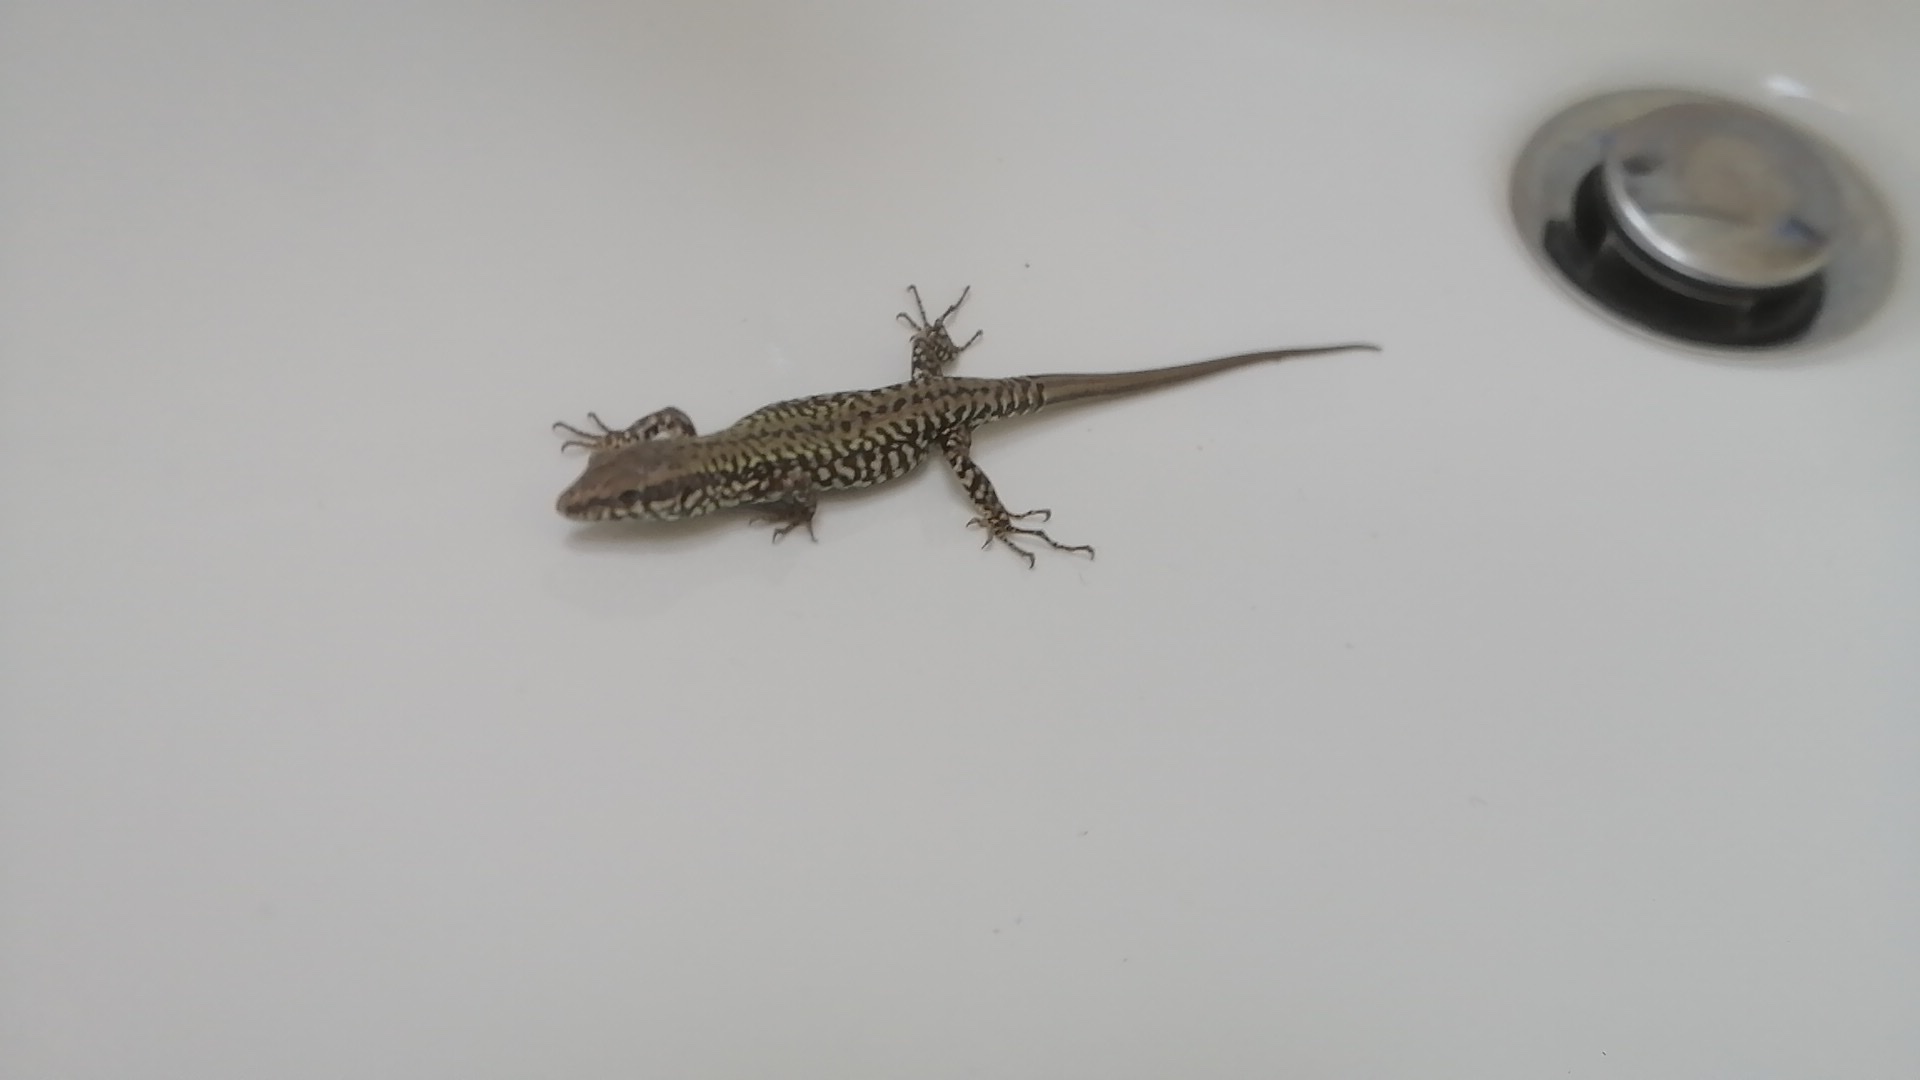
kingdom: Animalia
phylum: Chordata
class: Squamata
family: Lacertidae
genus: Podarcis
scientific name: Podarcis muralis
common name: Common wall lizard
